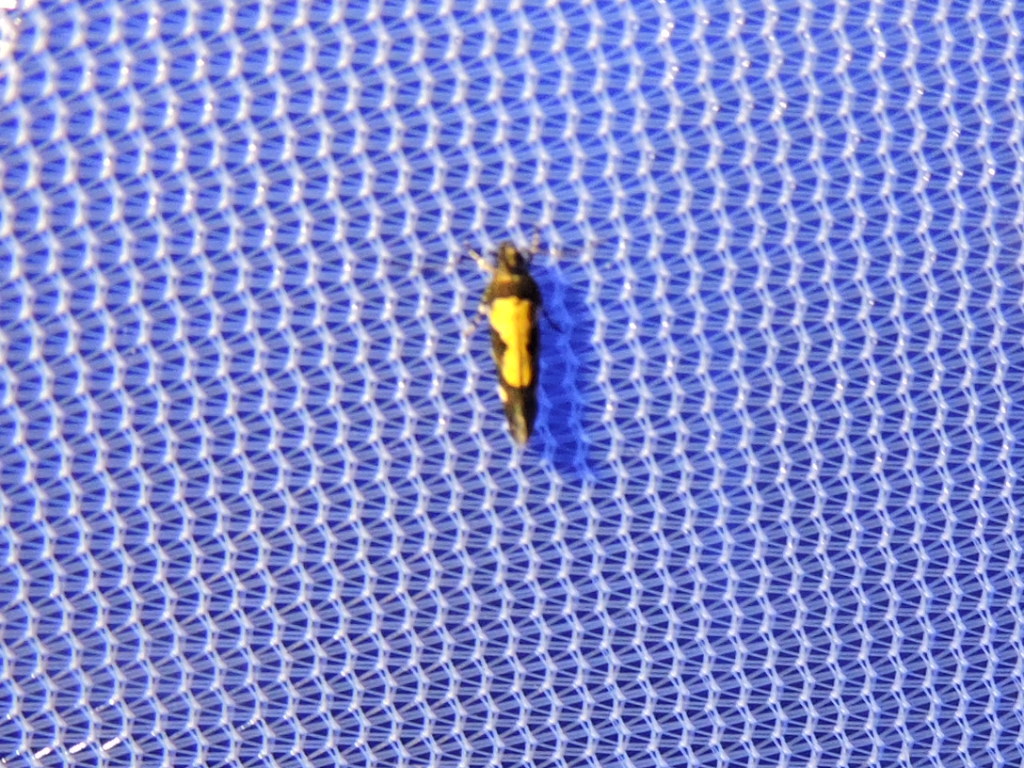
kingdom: Animalia
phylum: Arthropoda
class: Insecta
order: Lepidoptera
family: Gelechiidae
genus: Stegasta
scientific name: Stegasta bosqueella
